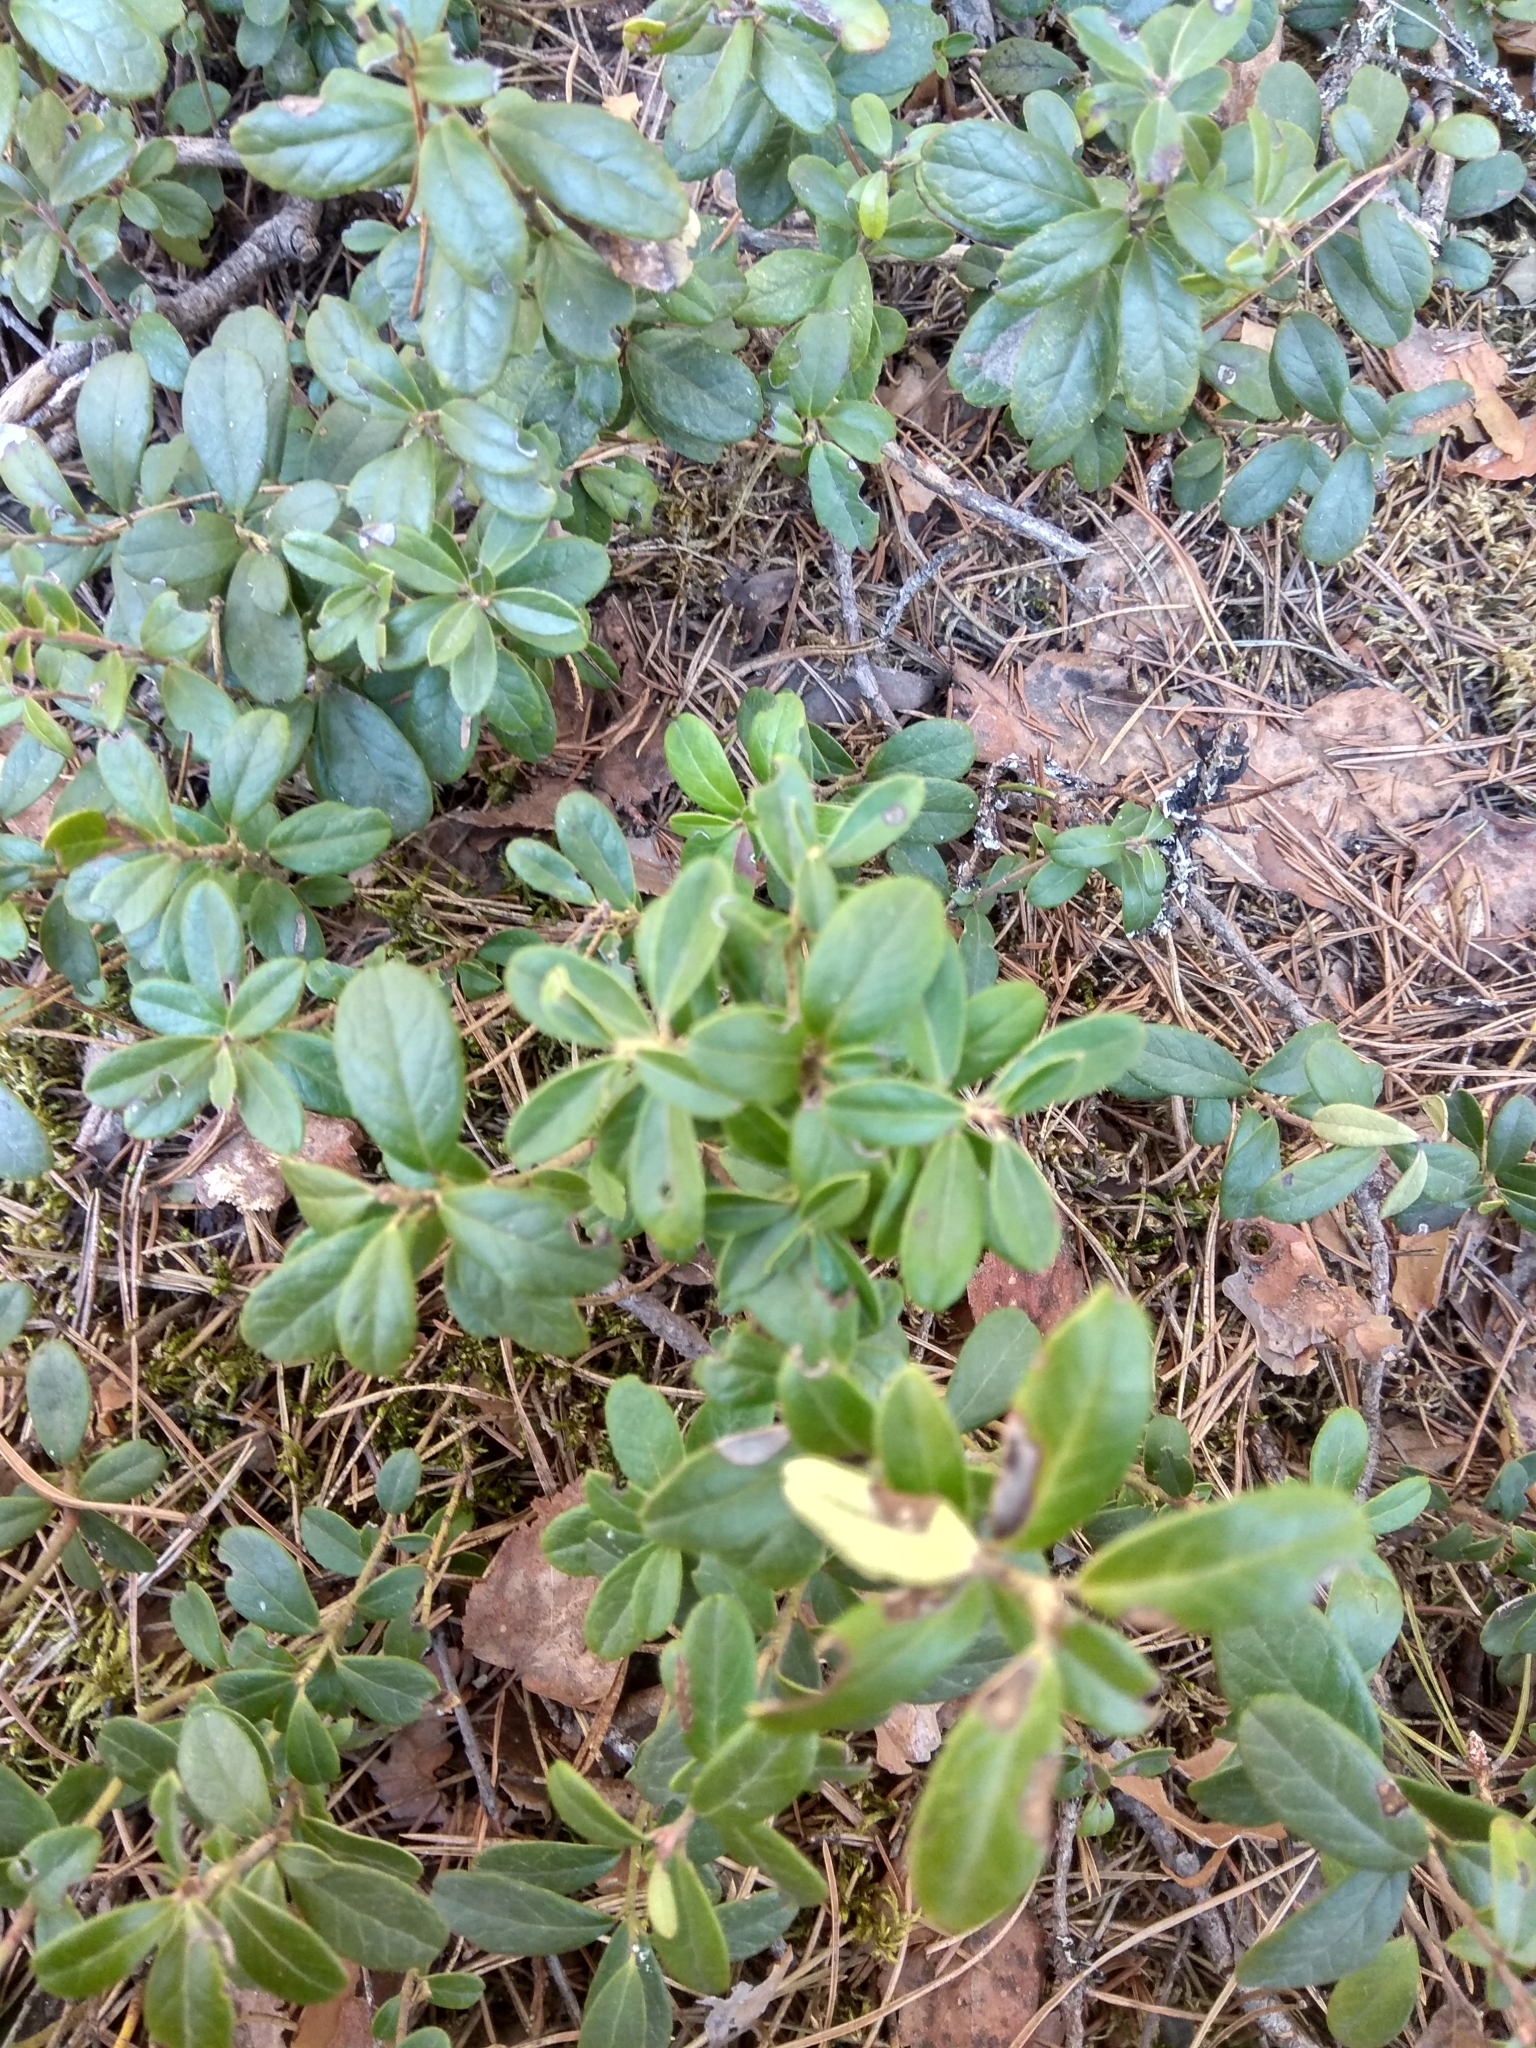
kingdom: Plantae
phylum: Tracheophyta
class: Magnoliopsida
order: Ericales
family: Ericaceae
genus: Vaccinium
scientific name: Vaccinium vitis-idaea
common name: Cowberry
